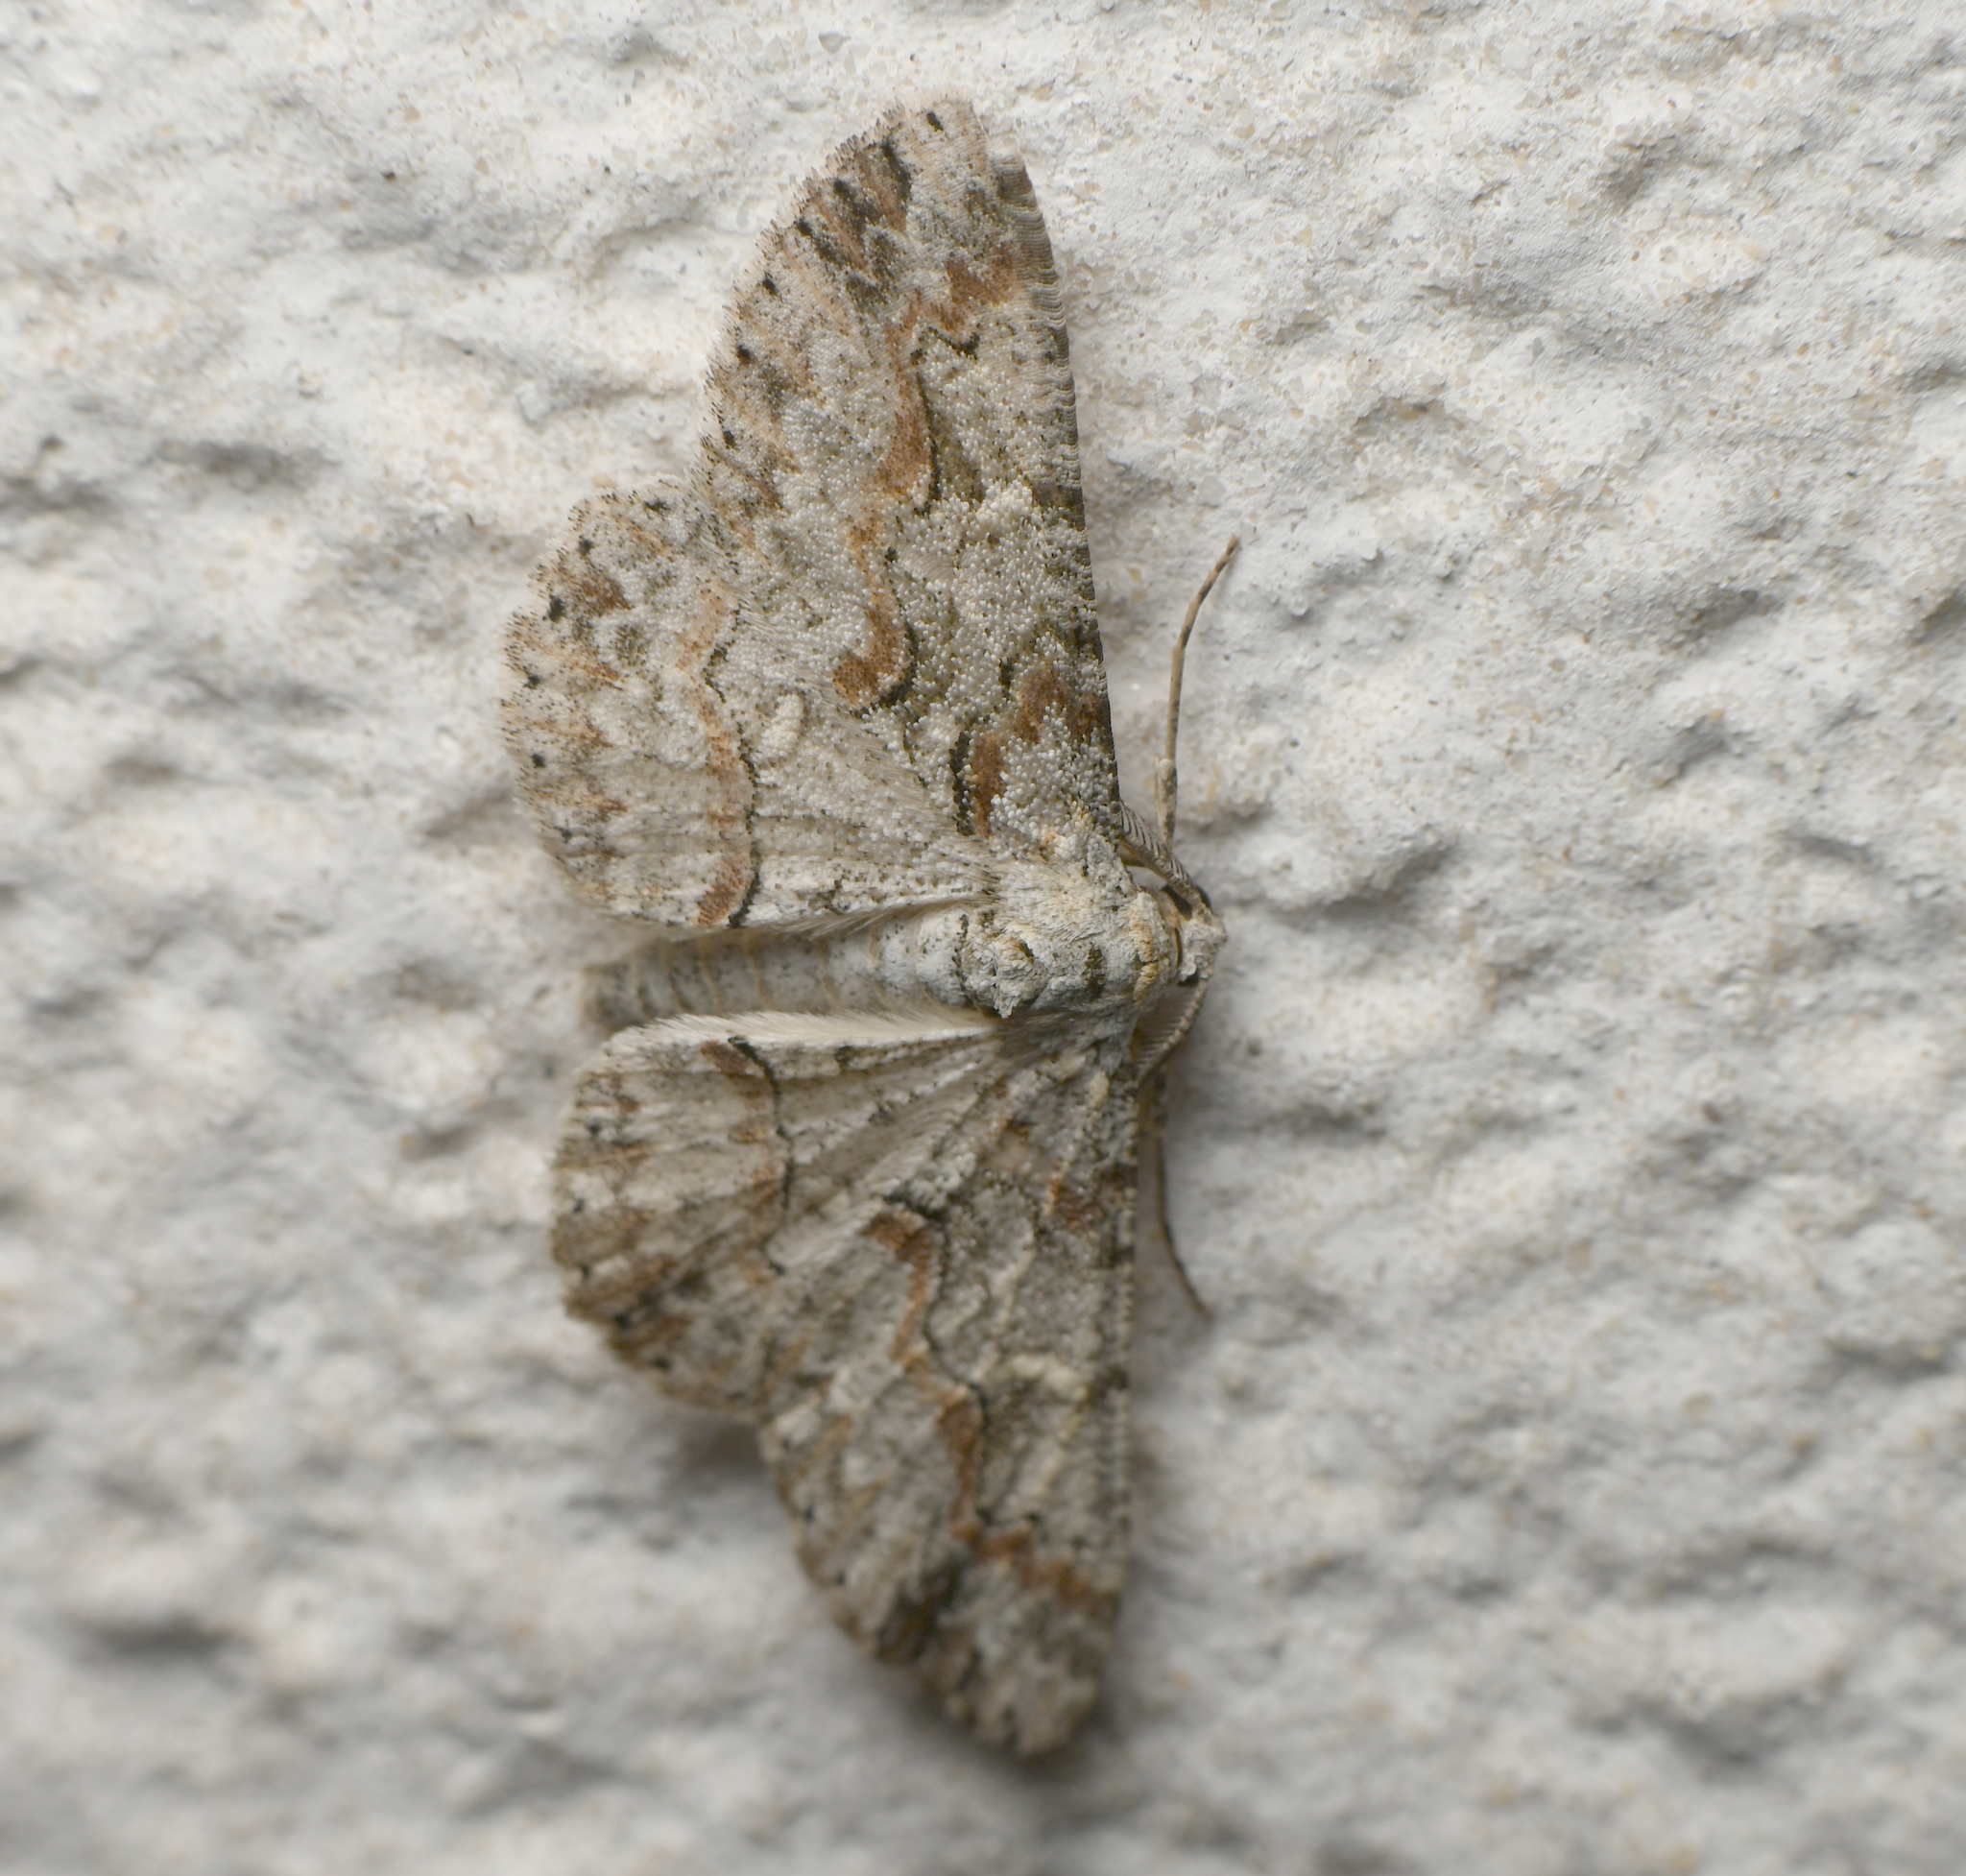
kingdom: Animalia
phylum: Arthropoda
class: Insecta
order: Lepidoptera
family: Geometridae
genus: Iridopsis
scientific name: Iridopsis defectaria
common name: Brown-shaded gray
